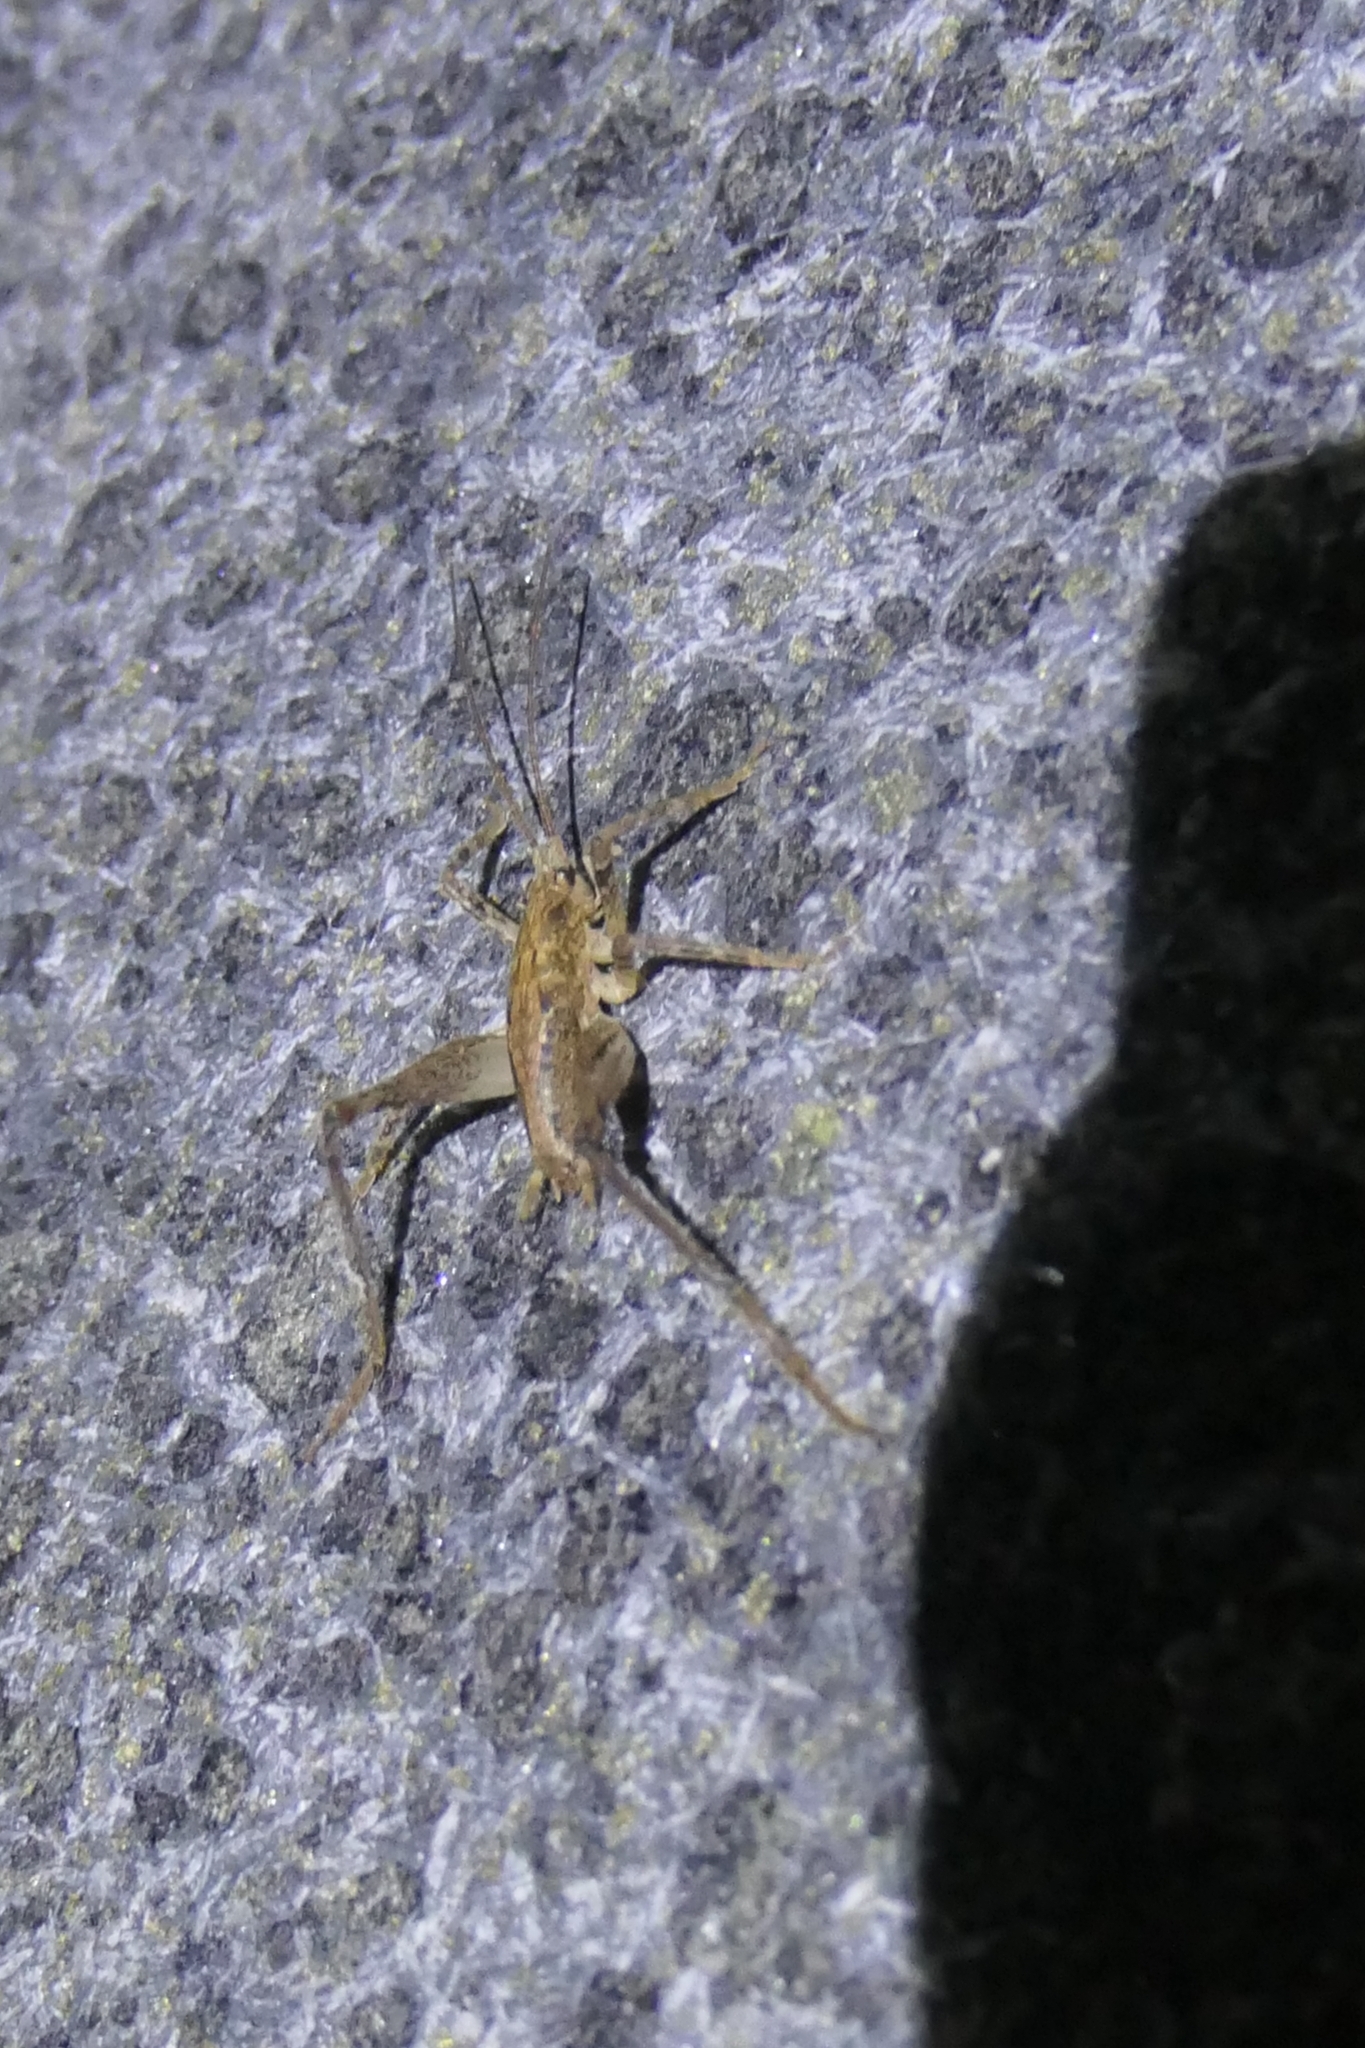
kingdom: Animalia
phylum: Arthropoda
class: Insecta
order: Orthoptera
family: Rhaphidophoridae
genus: Isoplectron
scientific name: Isoplectron armatum
